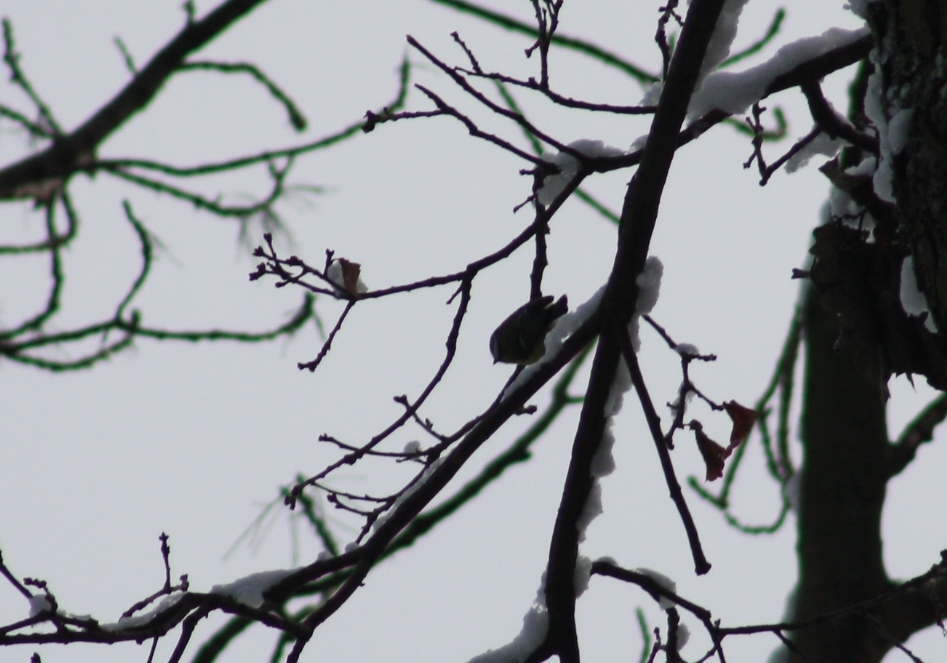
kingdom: Animalia
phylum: Chordata
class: Aves
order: Passeriformes
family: Paridae
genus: Cyanistes
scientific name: Cyanistes caeruleus
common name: Eurasian blue tit
